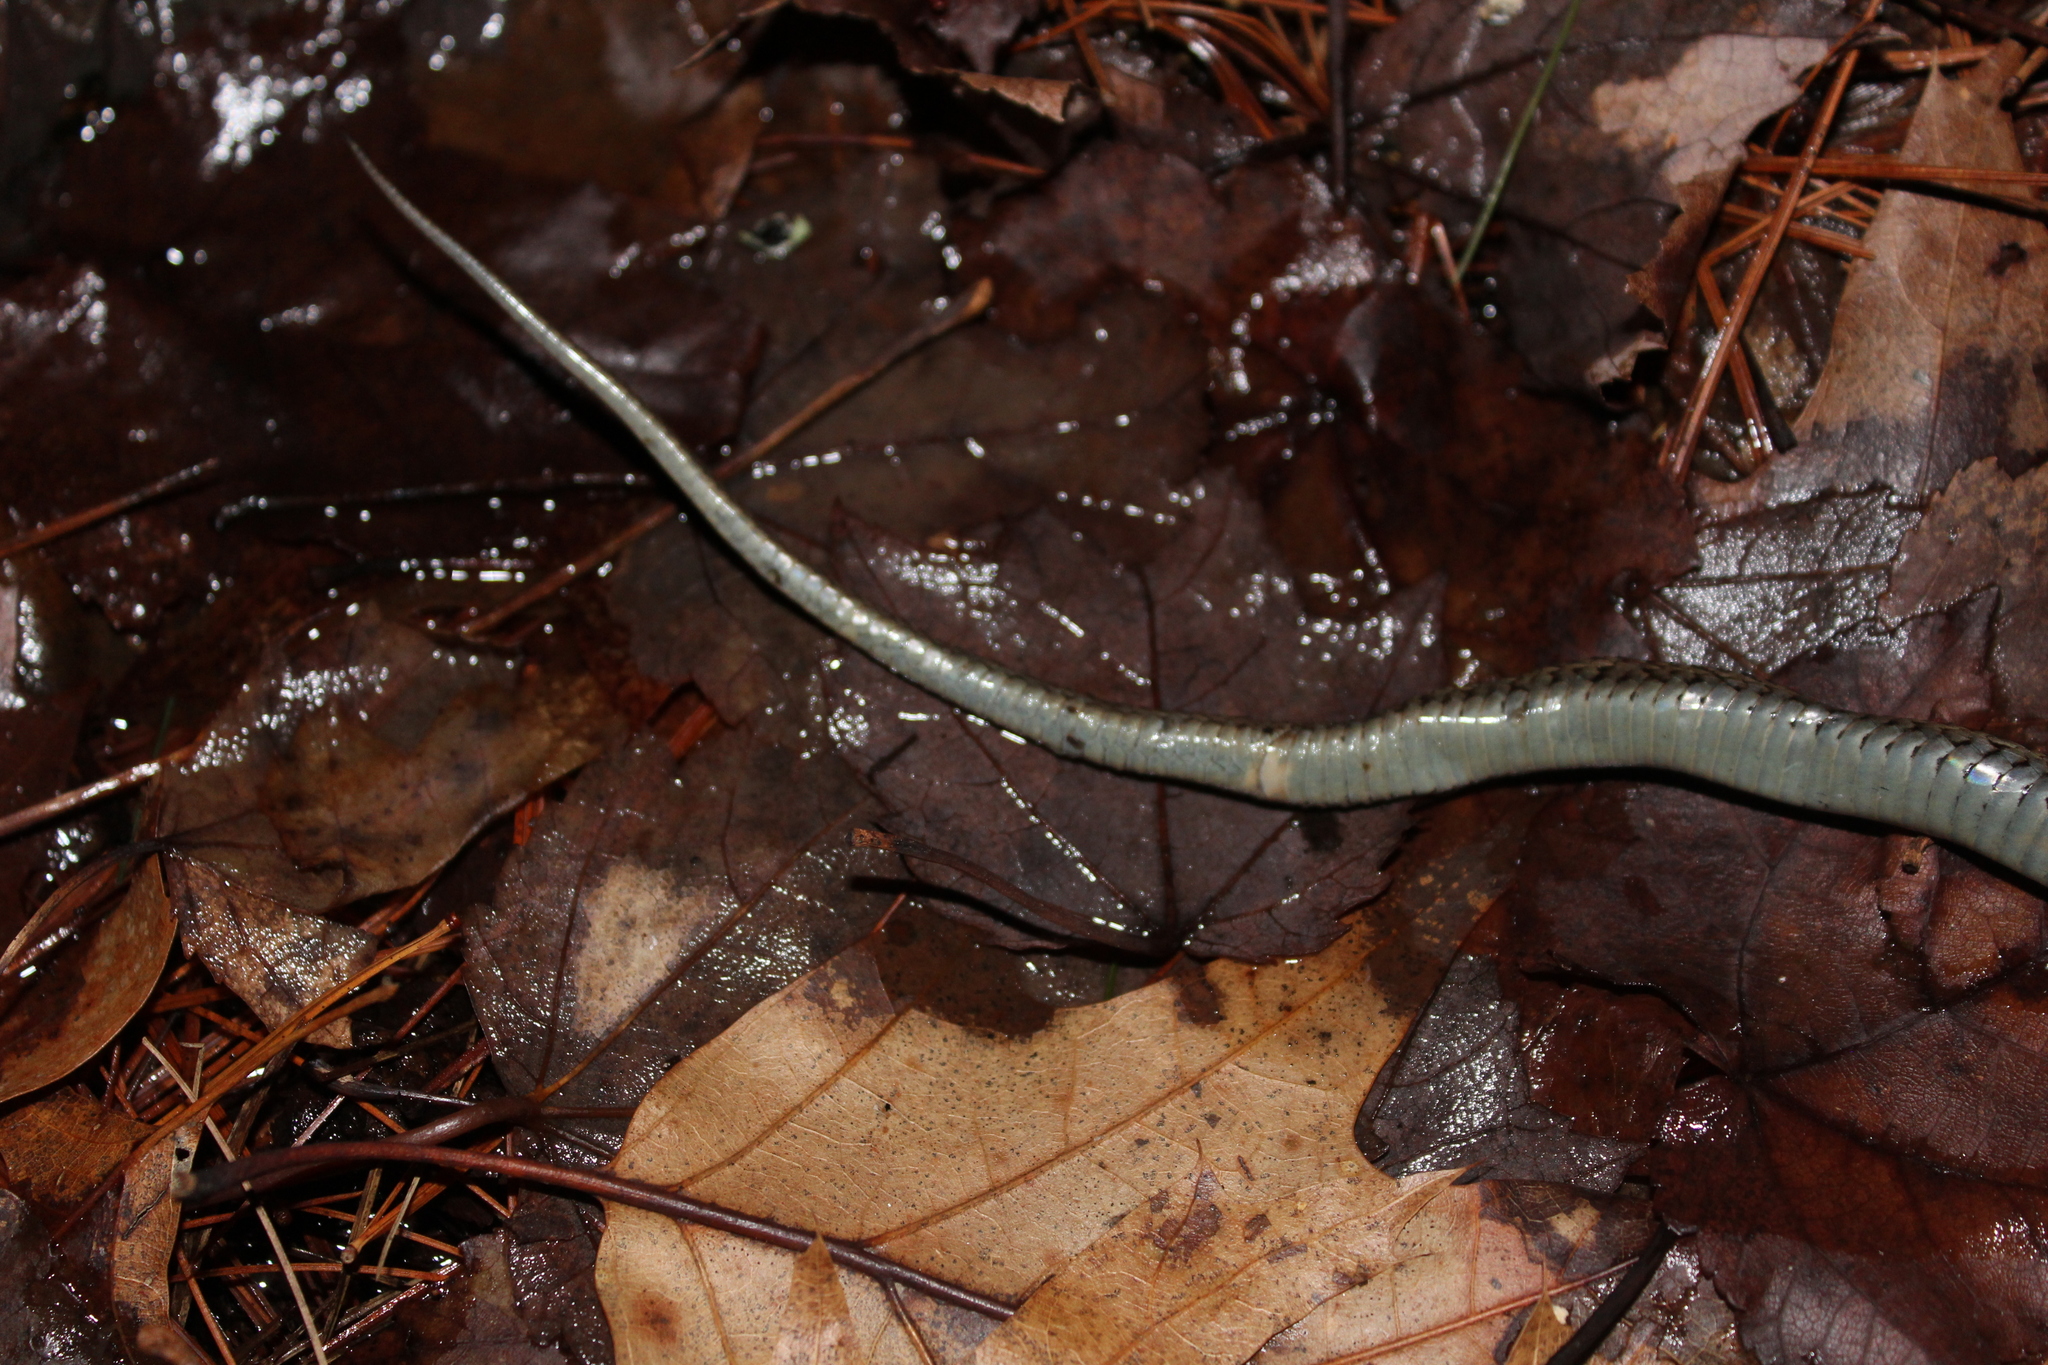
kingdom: Animalia
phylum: Chordata
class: Squamata
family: Colubridae
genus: Thamnophis
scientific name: Thamnophis sirtalis
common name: Common garter snake
